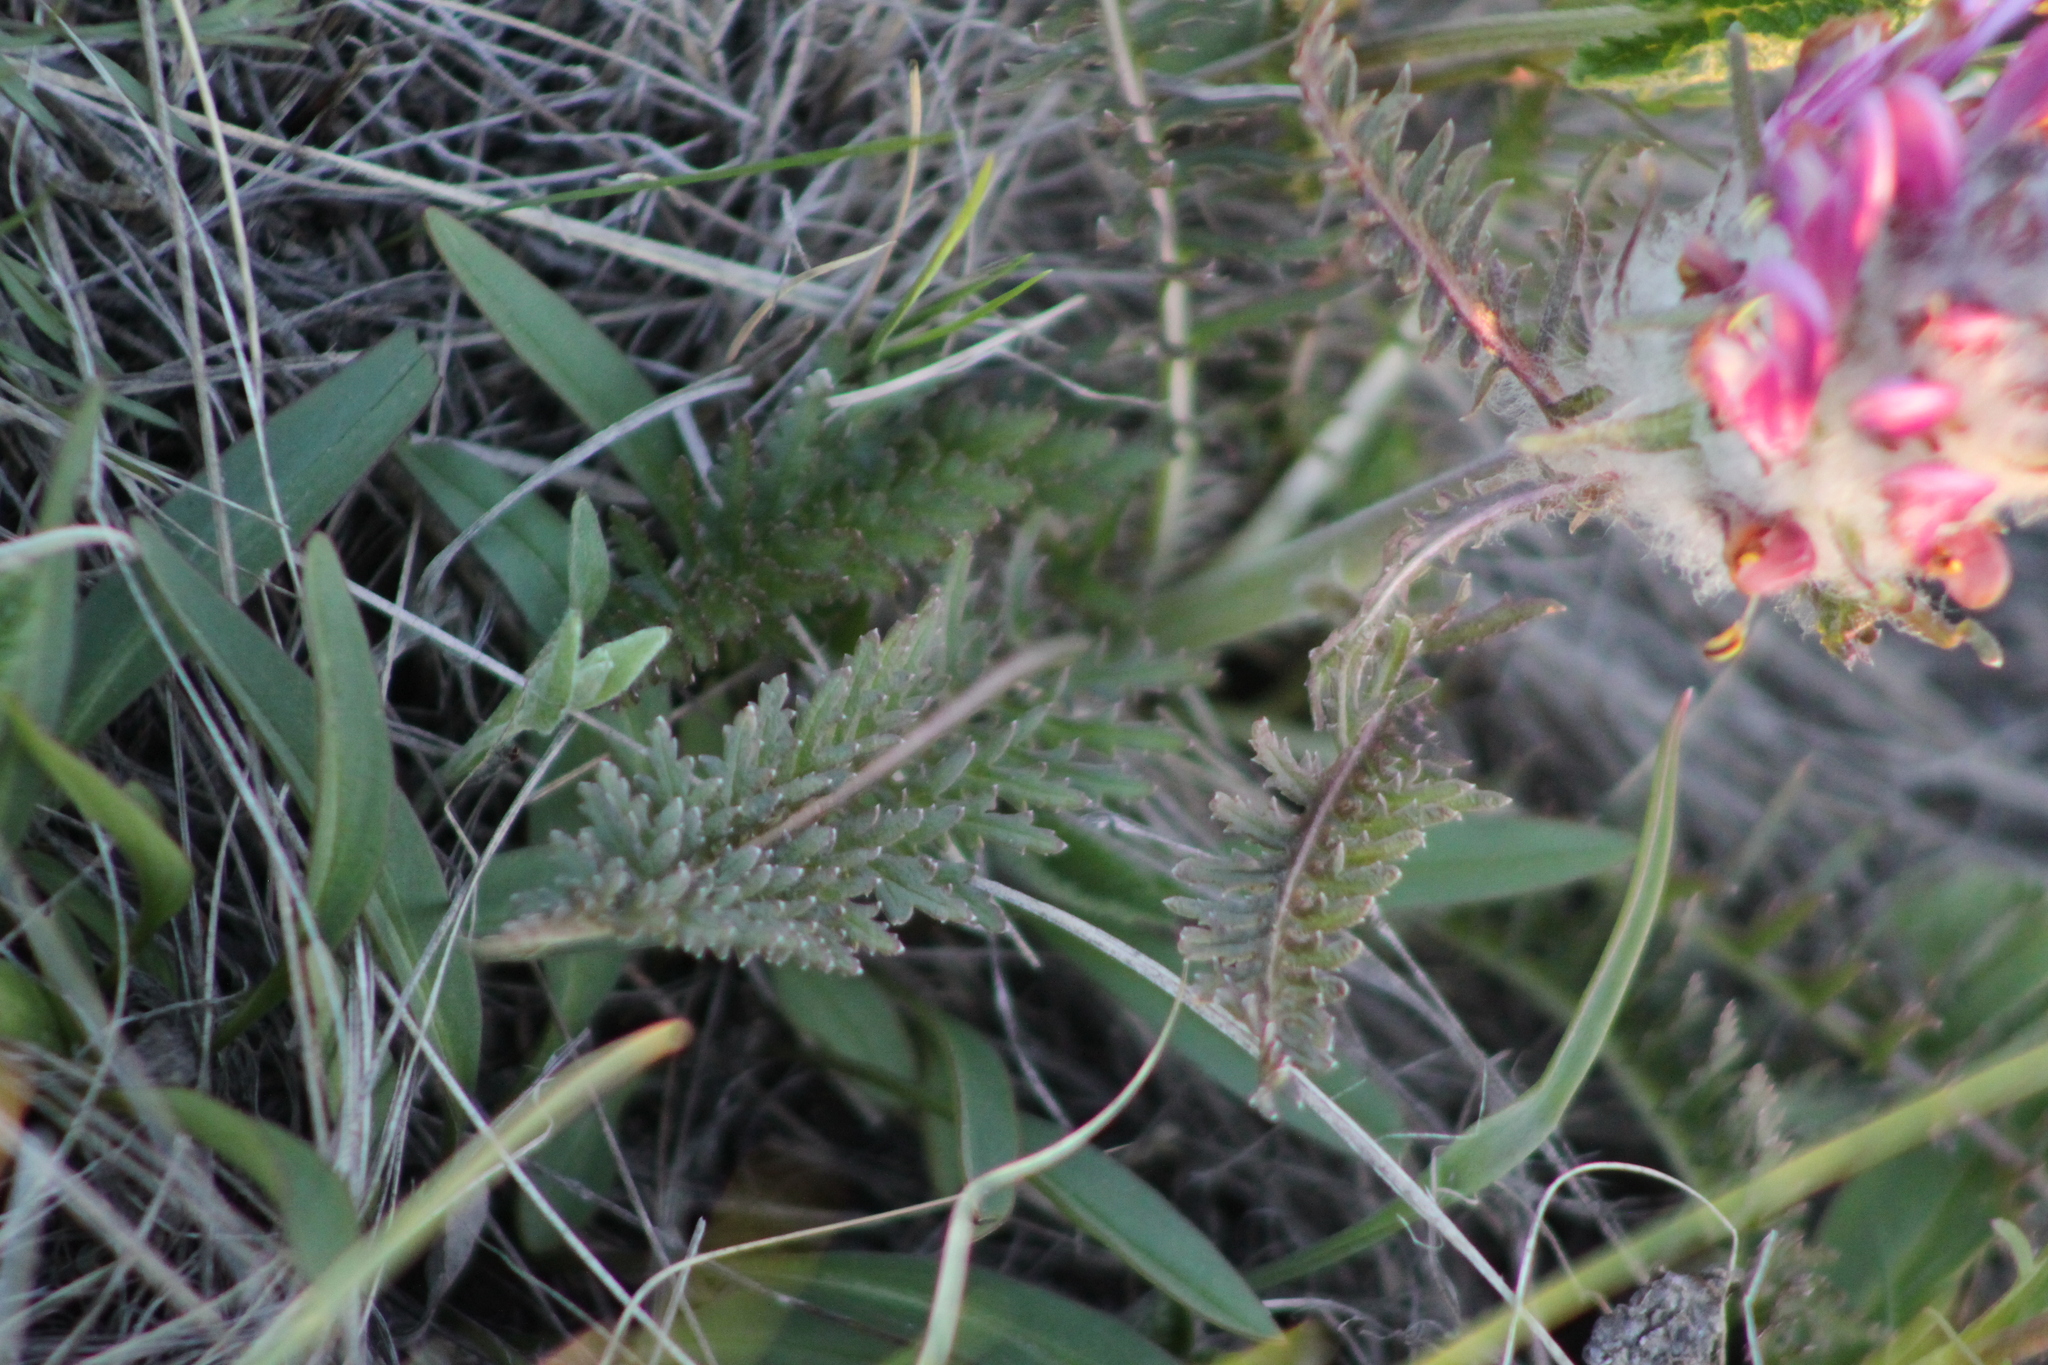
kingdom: Plantae
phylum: Tracheophyta
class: Magnoliopsida
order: Lamiales
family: Orobanchaceae
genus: Pedicularis
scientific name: Pedicularis dasystachys
